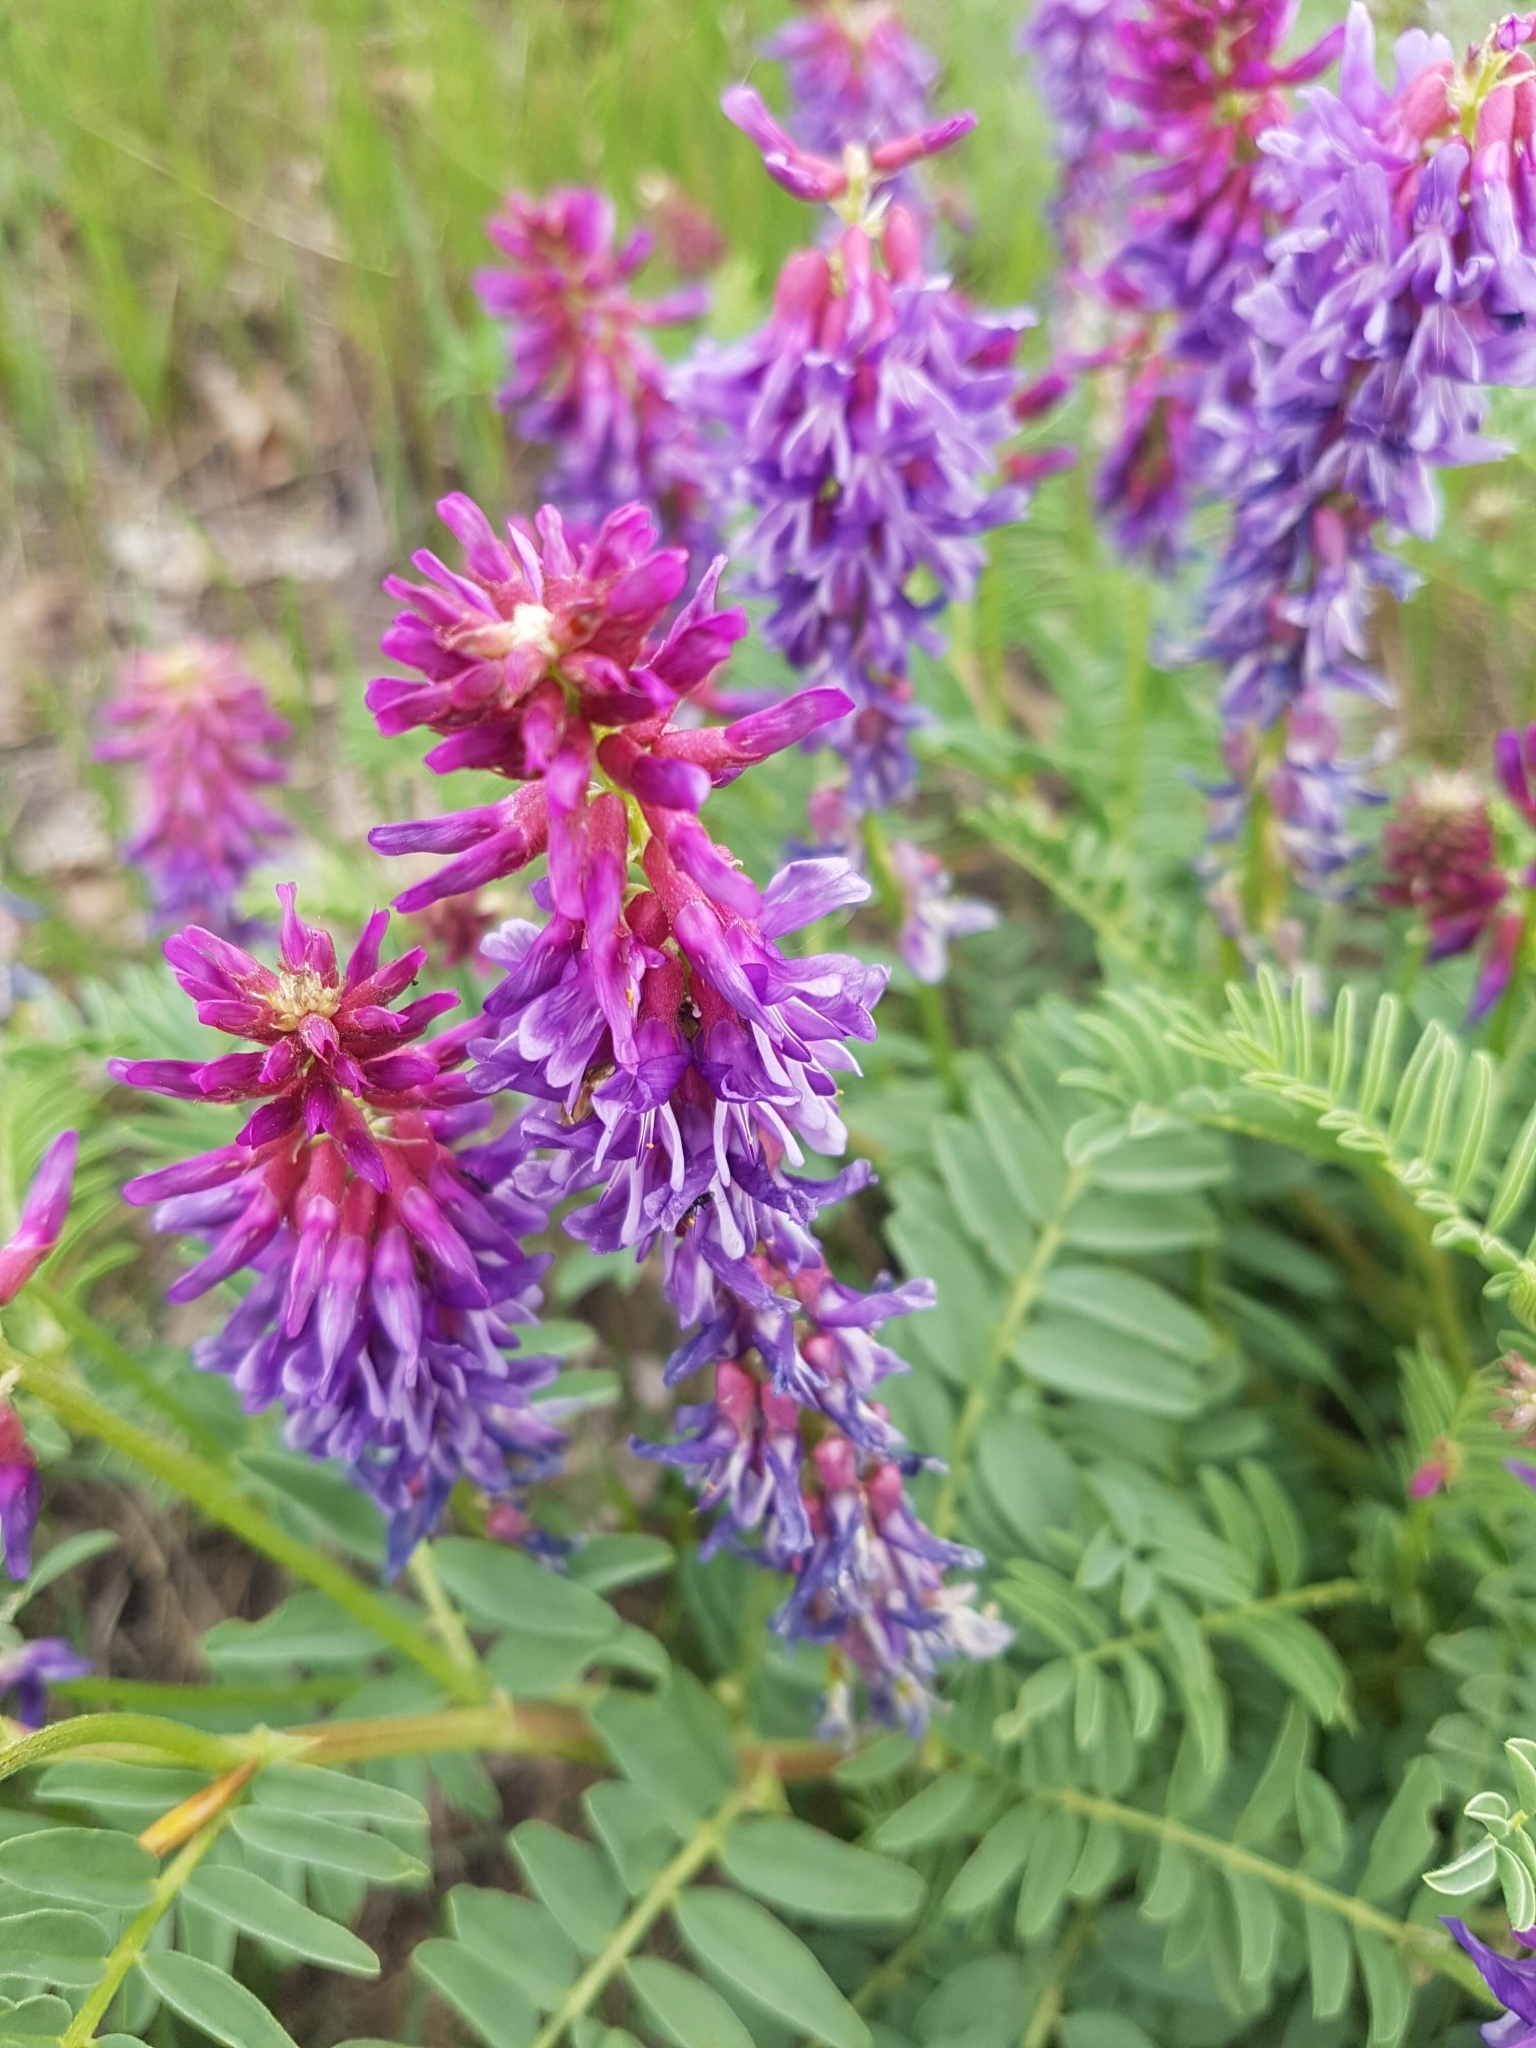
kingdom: Plantae
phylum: Tracheophyta
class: Magnoliopsida
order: Fabales
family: Fabaceae
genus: Astragalus
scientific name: Astragalus bisulcatus
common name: Two-groove milk-vetch
